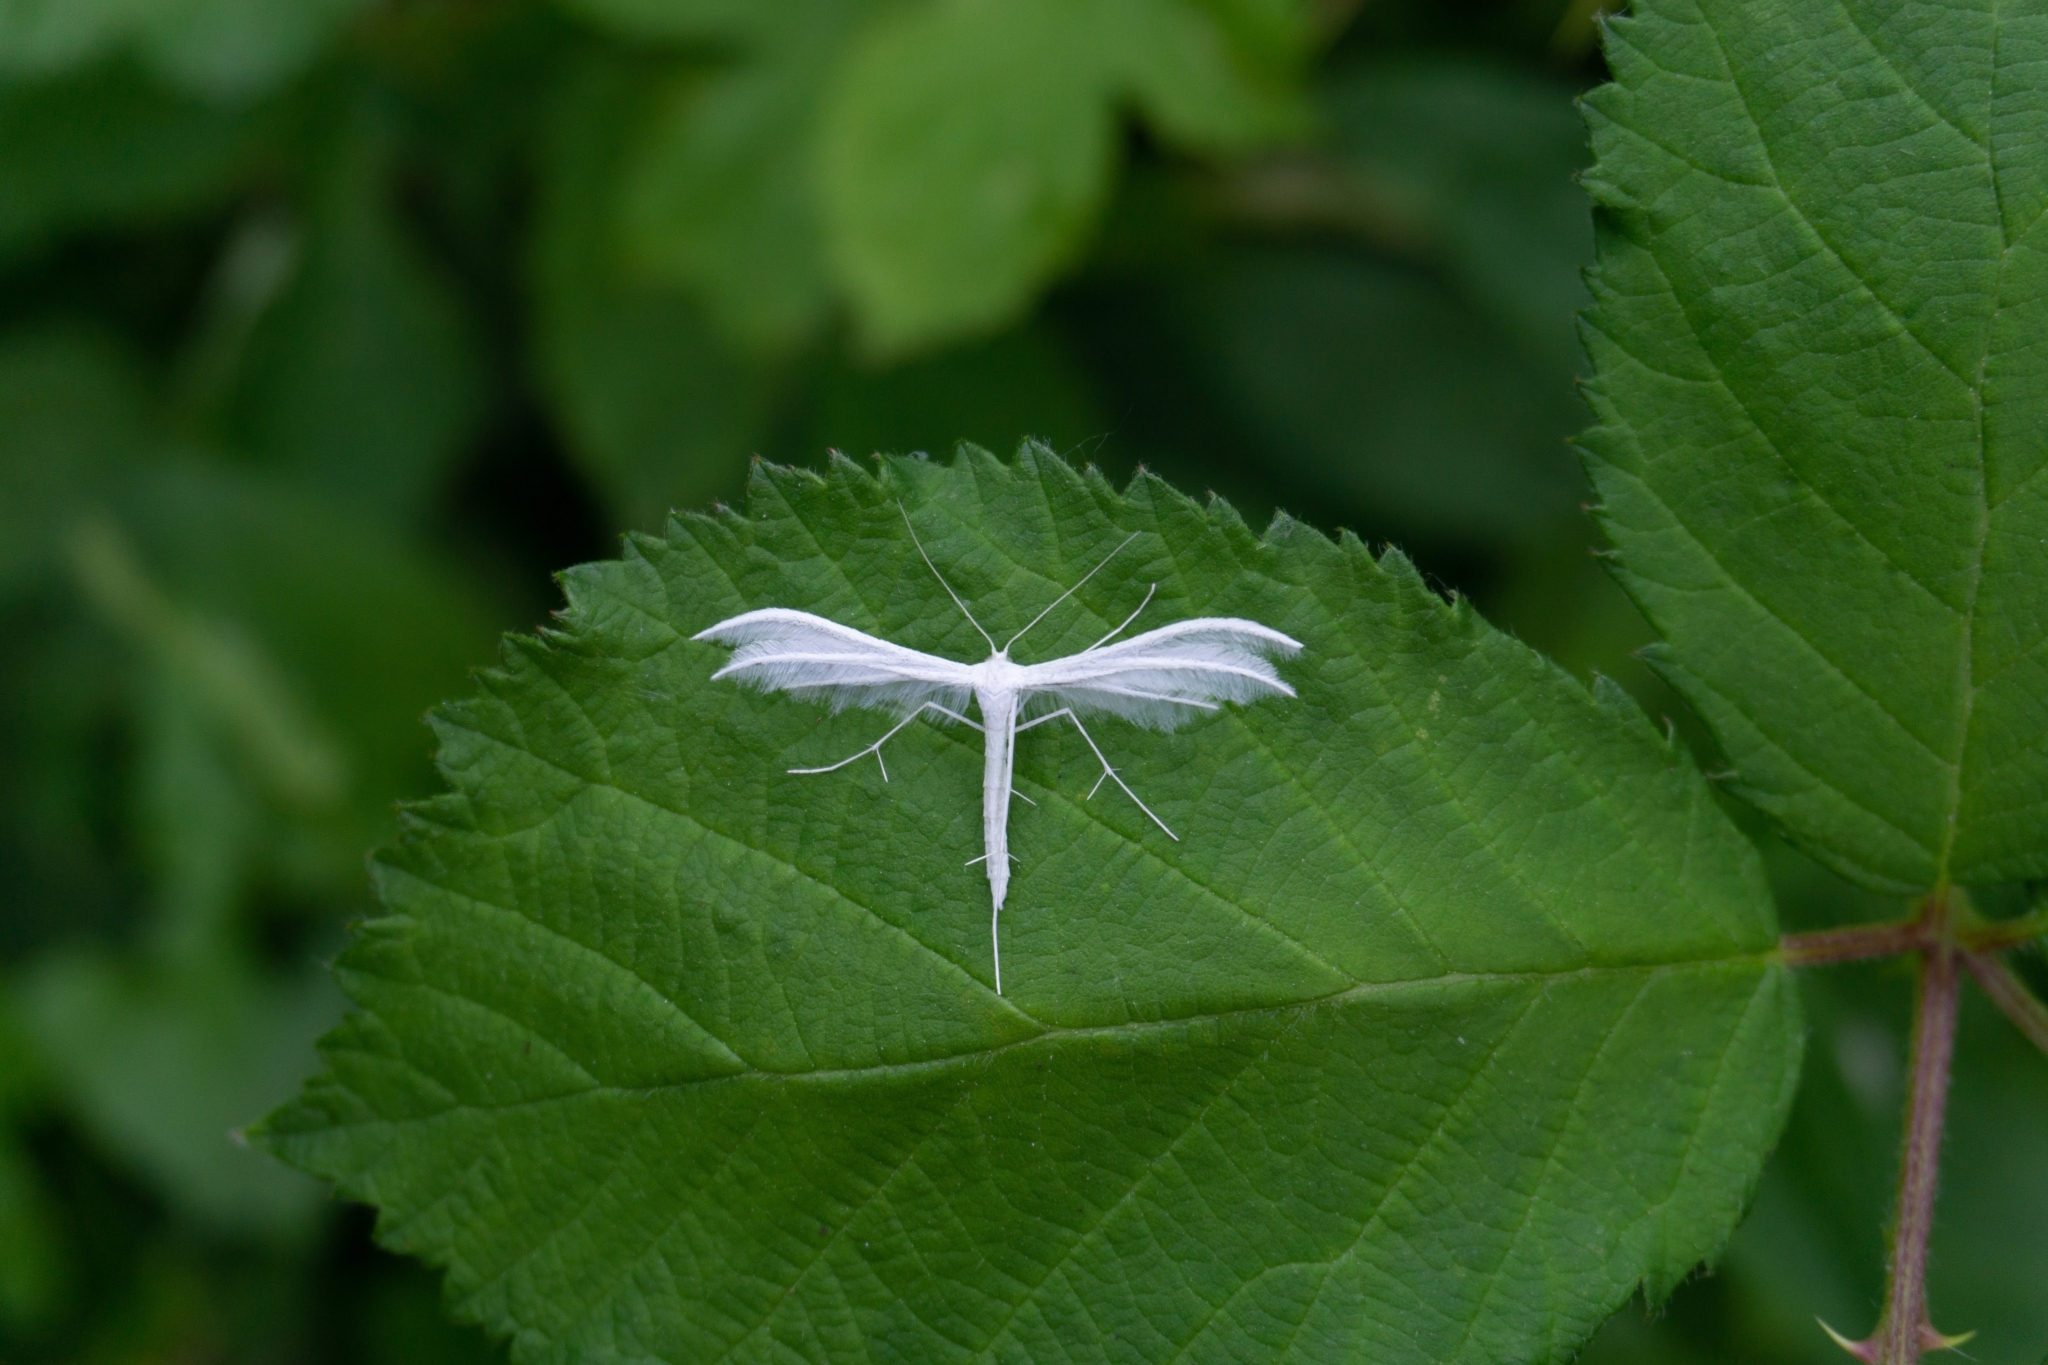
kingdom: Animalia
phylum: Arthropoda
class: Insecta
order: Lepidoptera
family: Pterophoridae
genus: Pterophorus
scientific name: Pterophorus pentadactyla
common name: White plume moth
